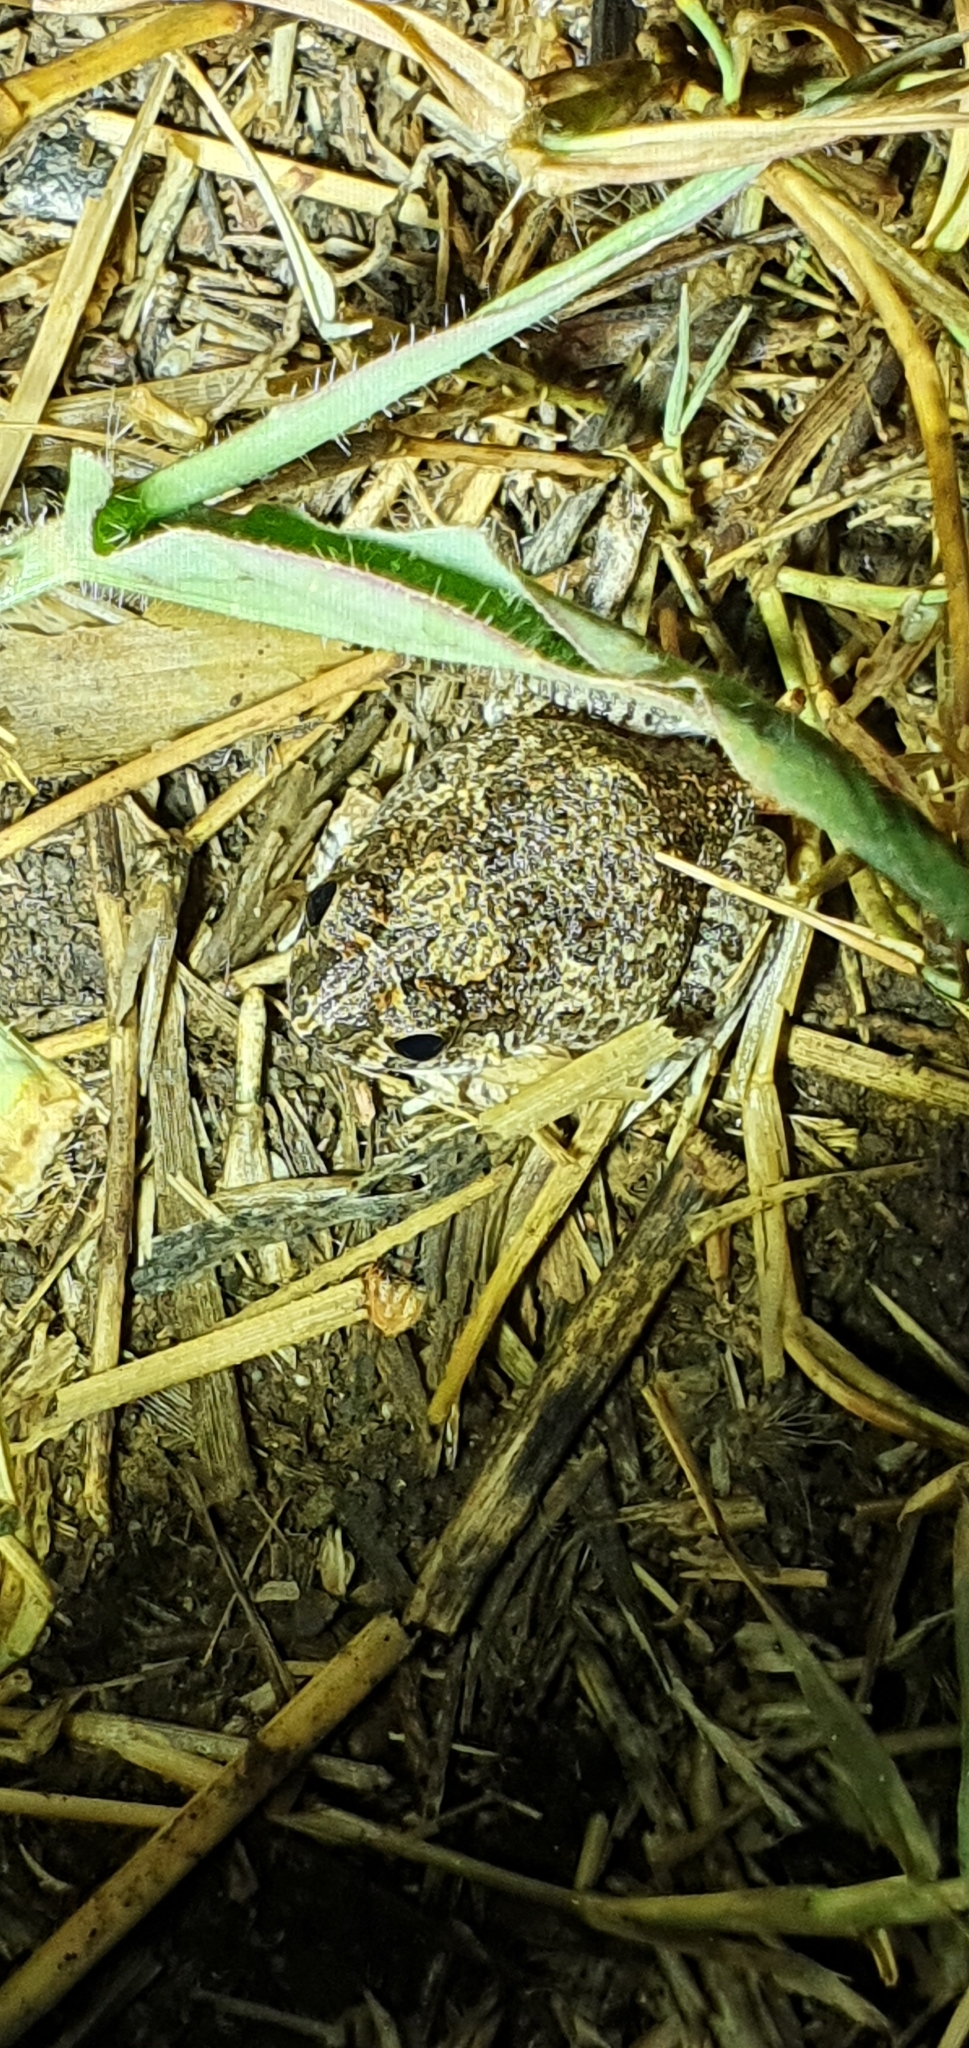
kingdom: Animalia
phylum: Chordata
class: Amphibia
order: Anura
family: Limnodynastidae
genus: Platyplectrum
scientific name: Platyplectrum ornatum
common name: Ornate burrowing frog
